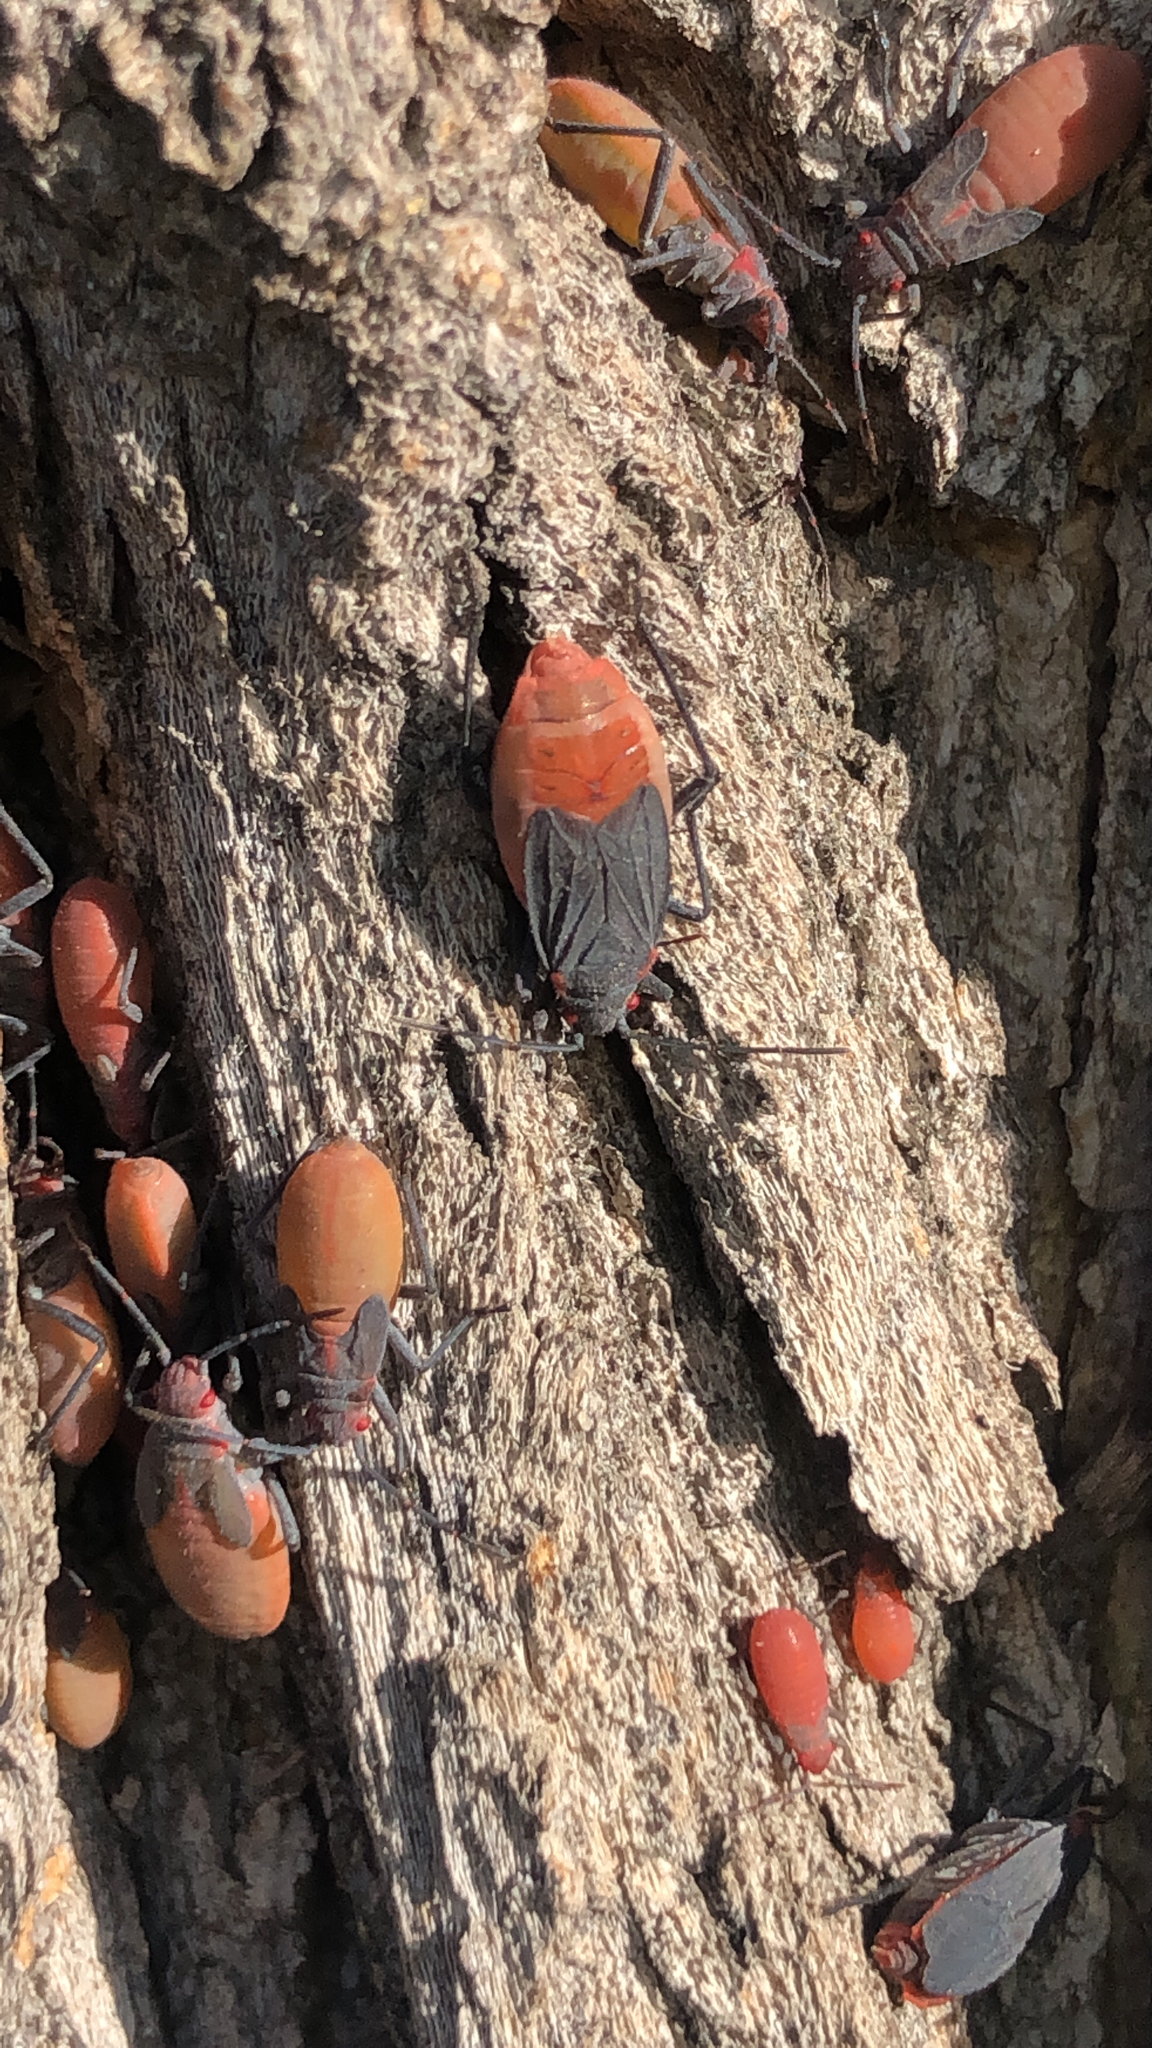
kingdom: Animalia
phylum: Arthropoda
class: Insecta
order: Hemiptera
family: Rhopalidae
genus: Jadera
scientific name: Jadera haematoloma
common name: Red-shouldered bug
